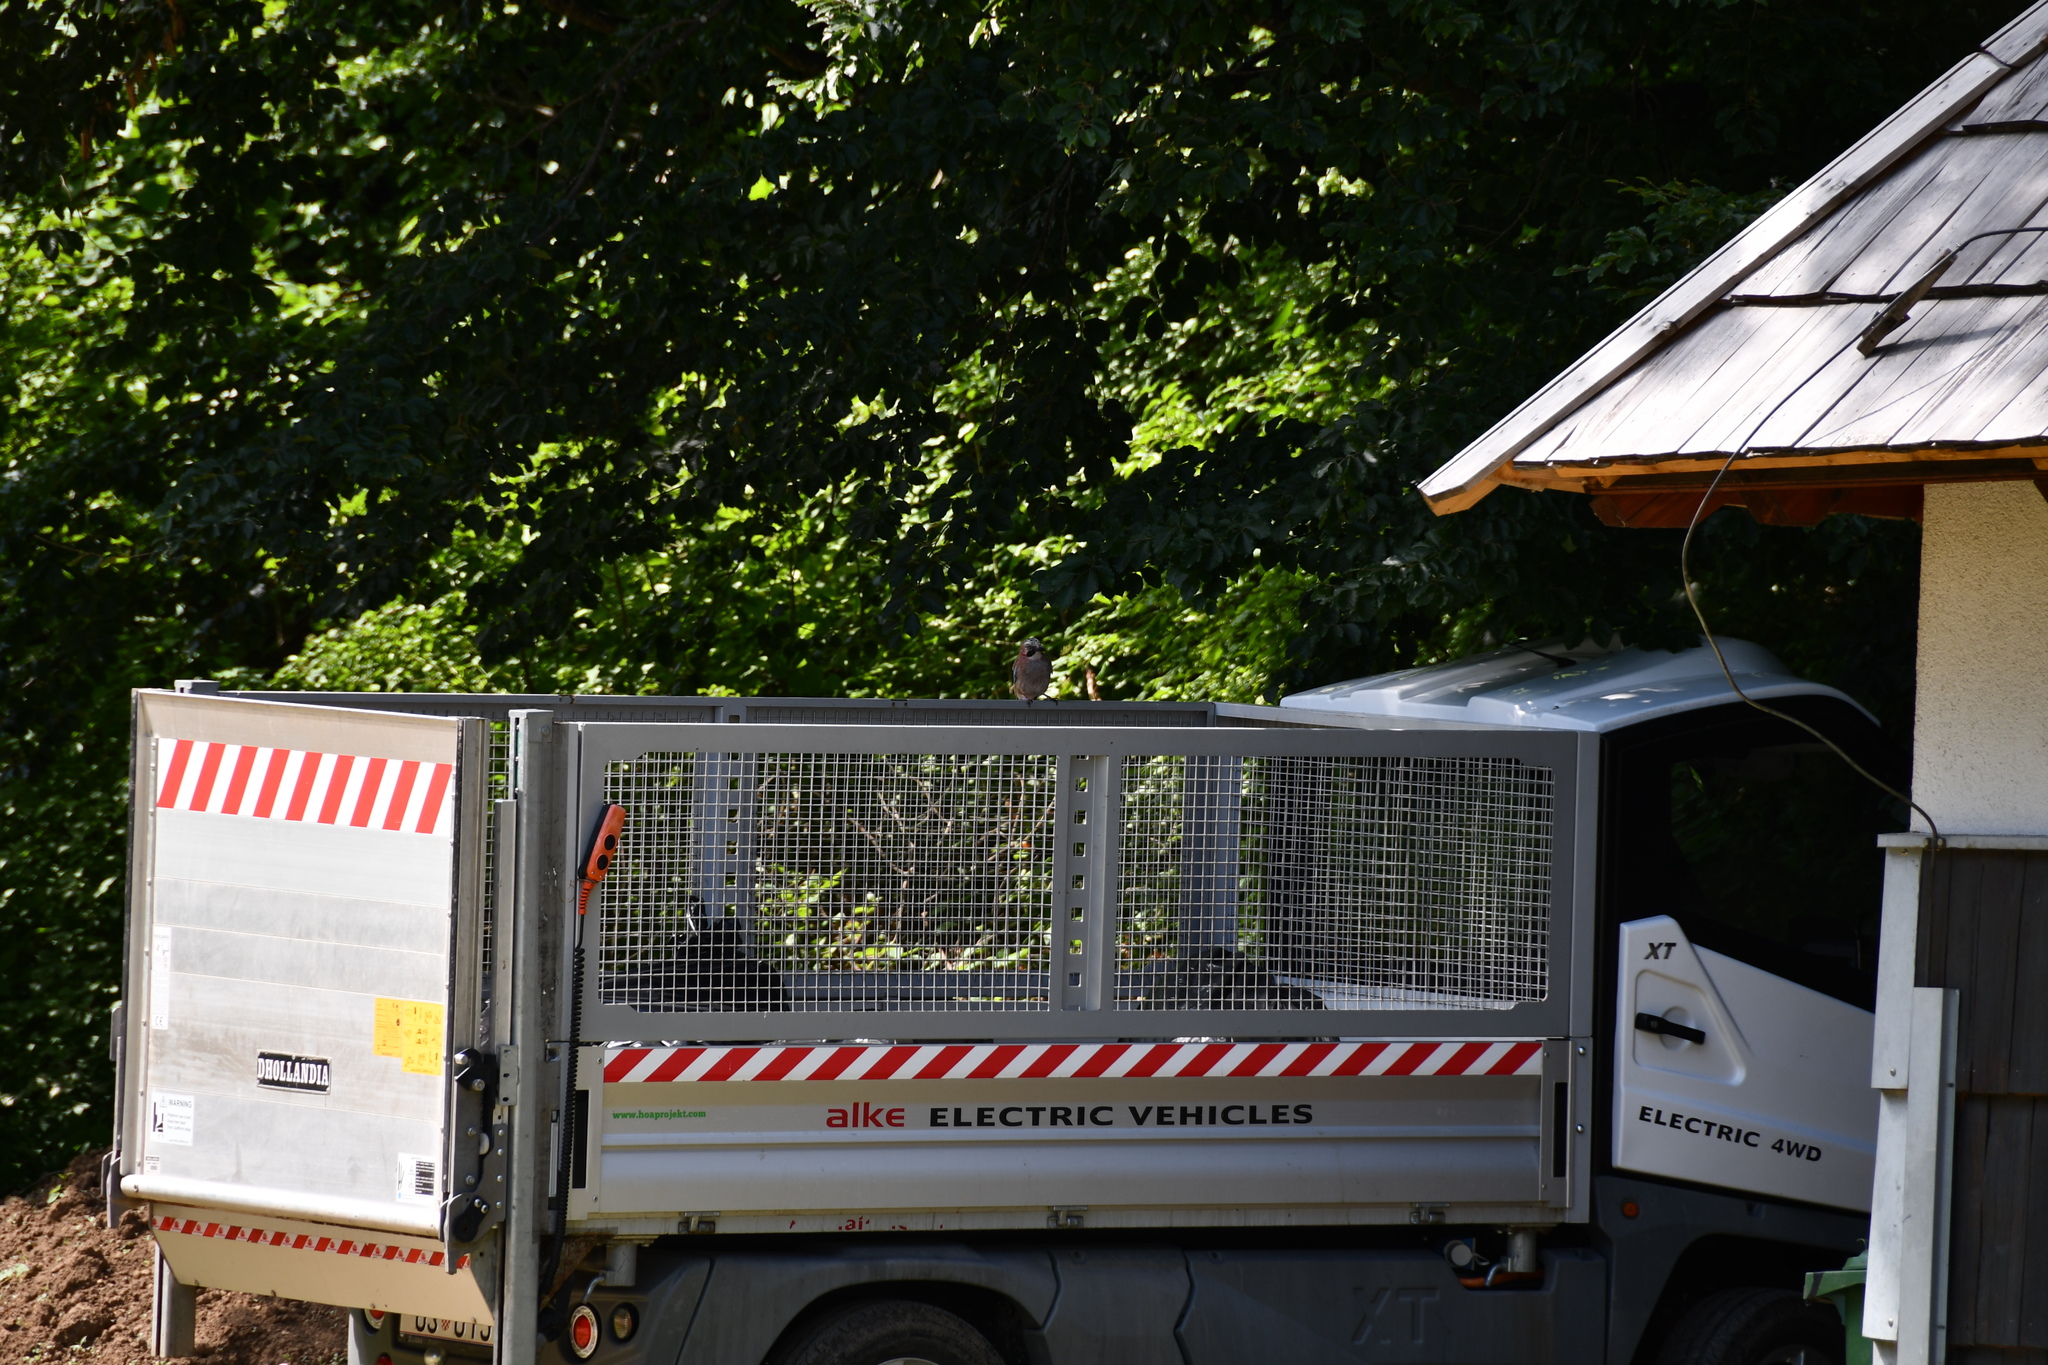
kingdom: Animalia
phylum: Chordata
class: Aves
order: Passeriformes
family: Corvidae
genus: Garrulus
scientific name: Garrulus glandarius
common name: Eurasian jay
